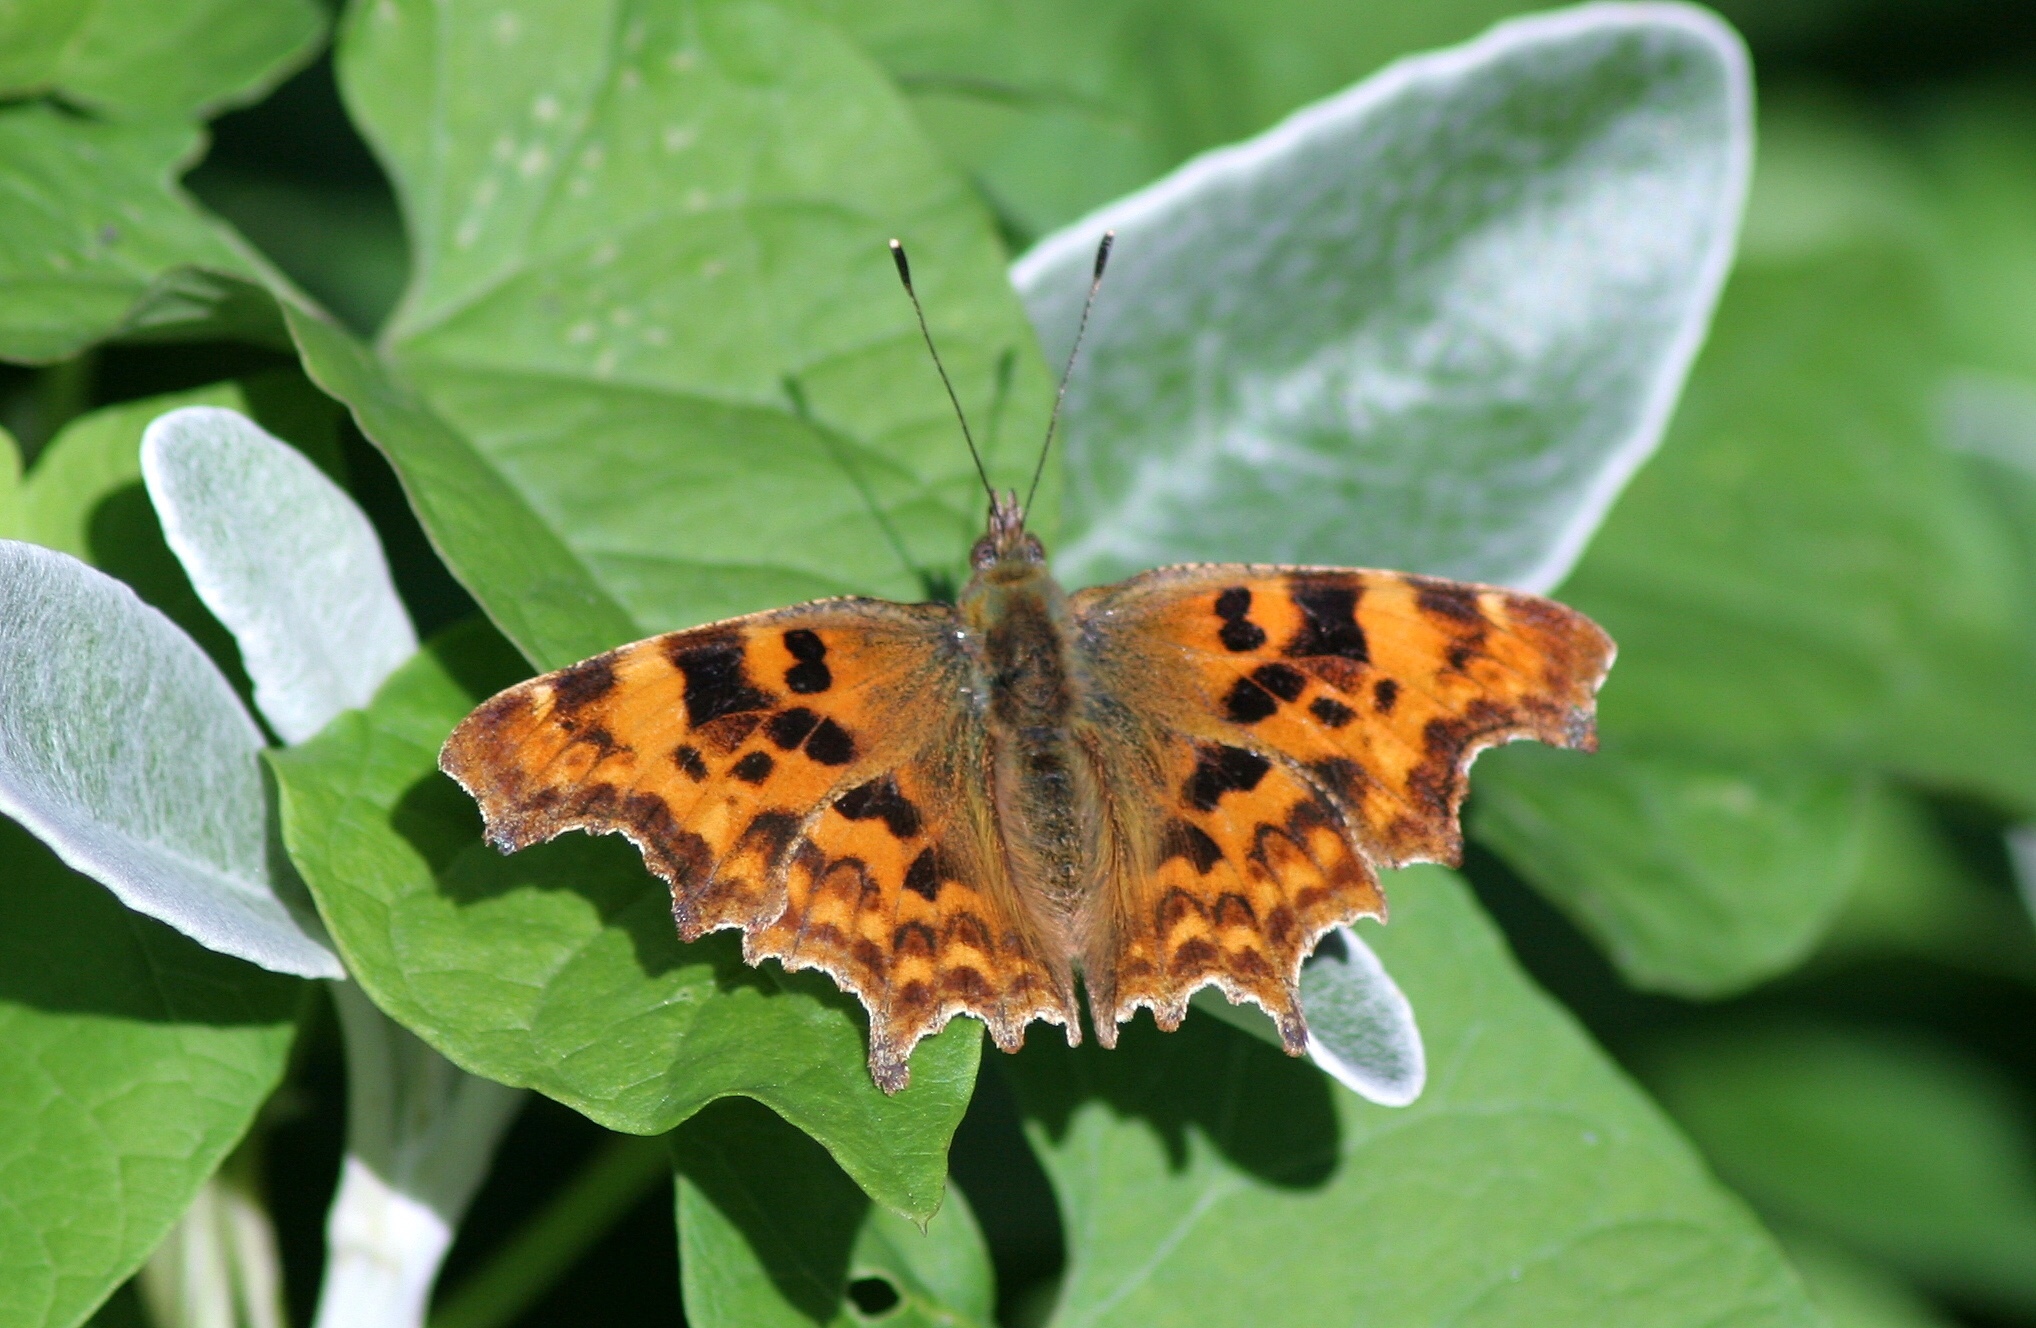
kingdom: Animalia
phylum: Arthropoda
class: Insecta
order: Lepidoptera
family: Nymphalidae
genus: Polygonia
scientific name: Polygonia c-album
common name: Comma
